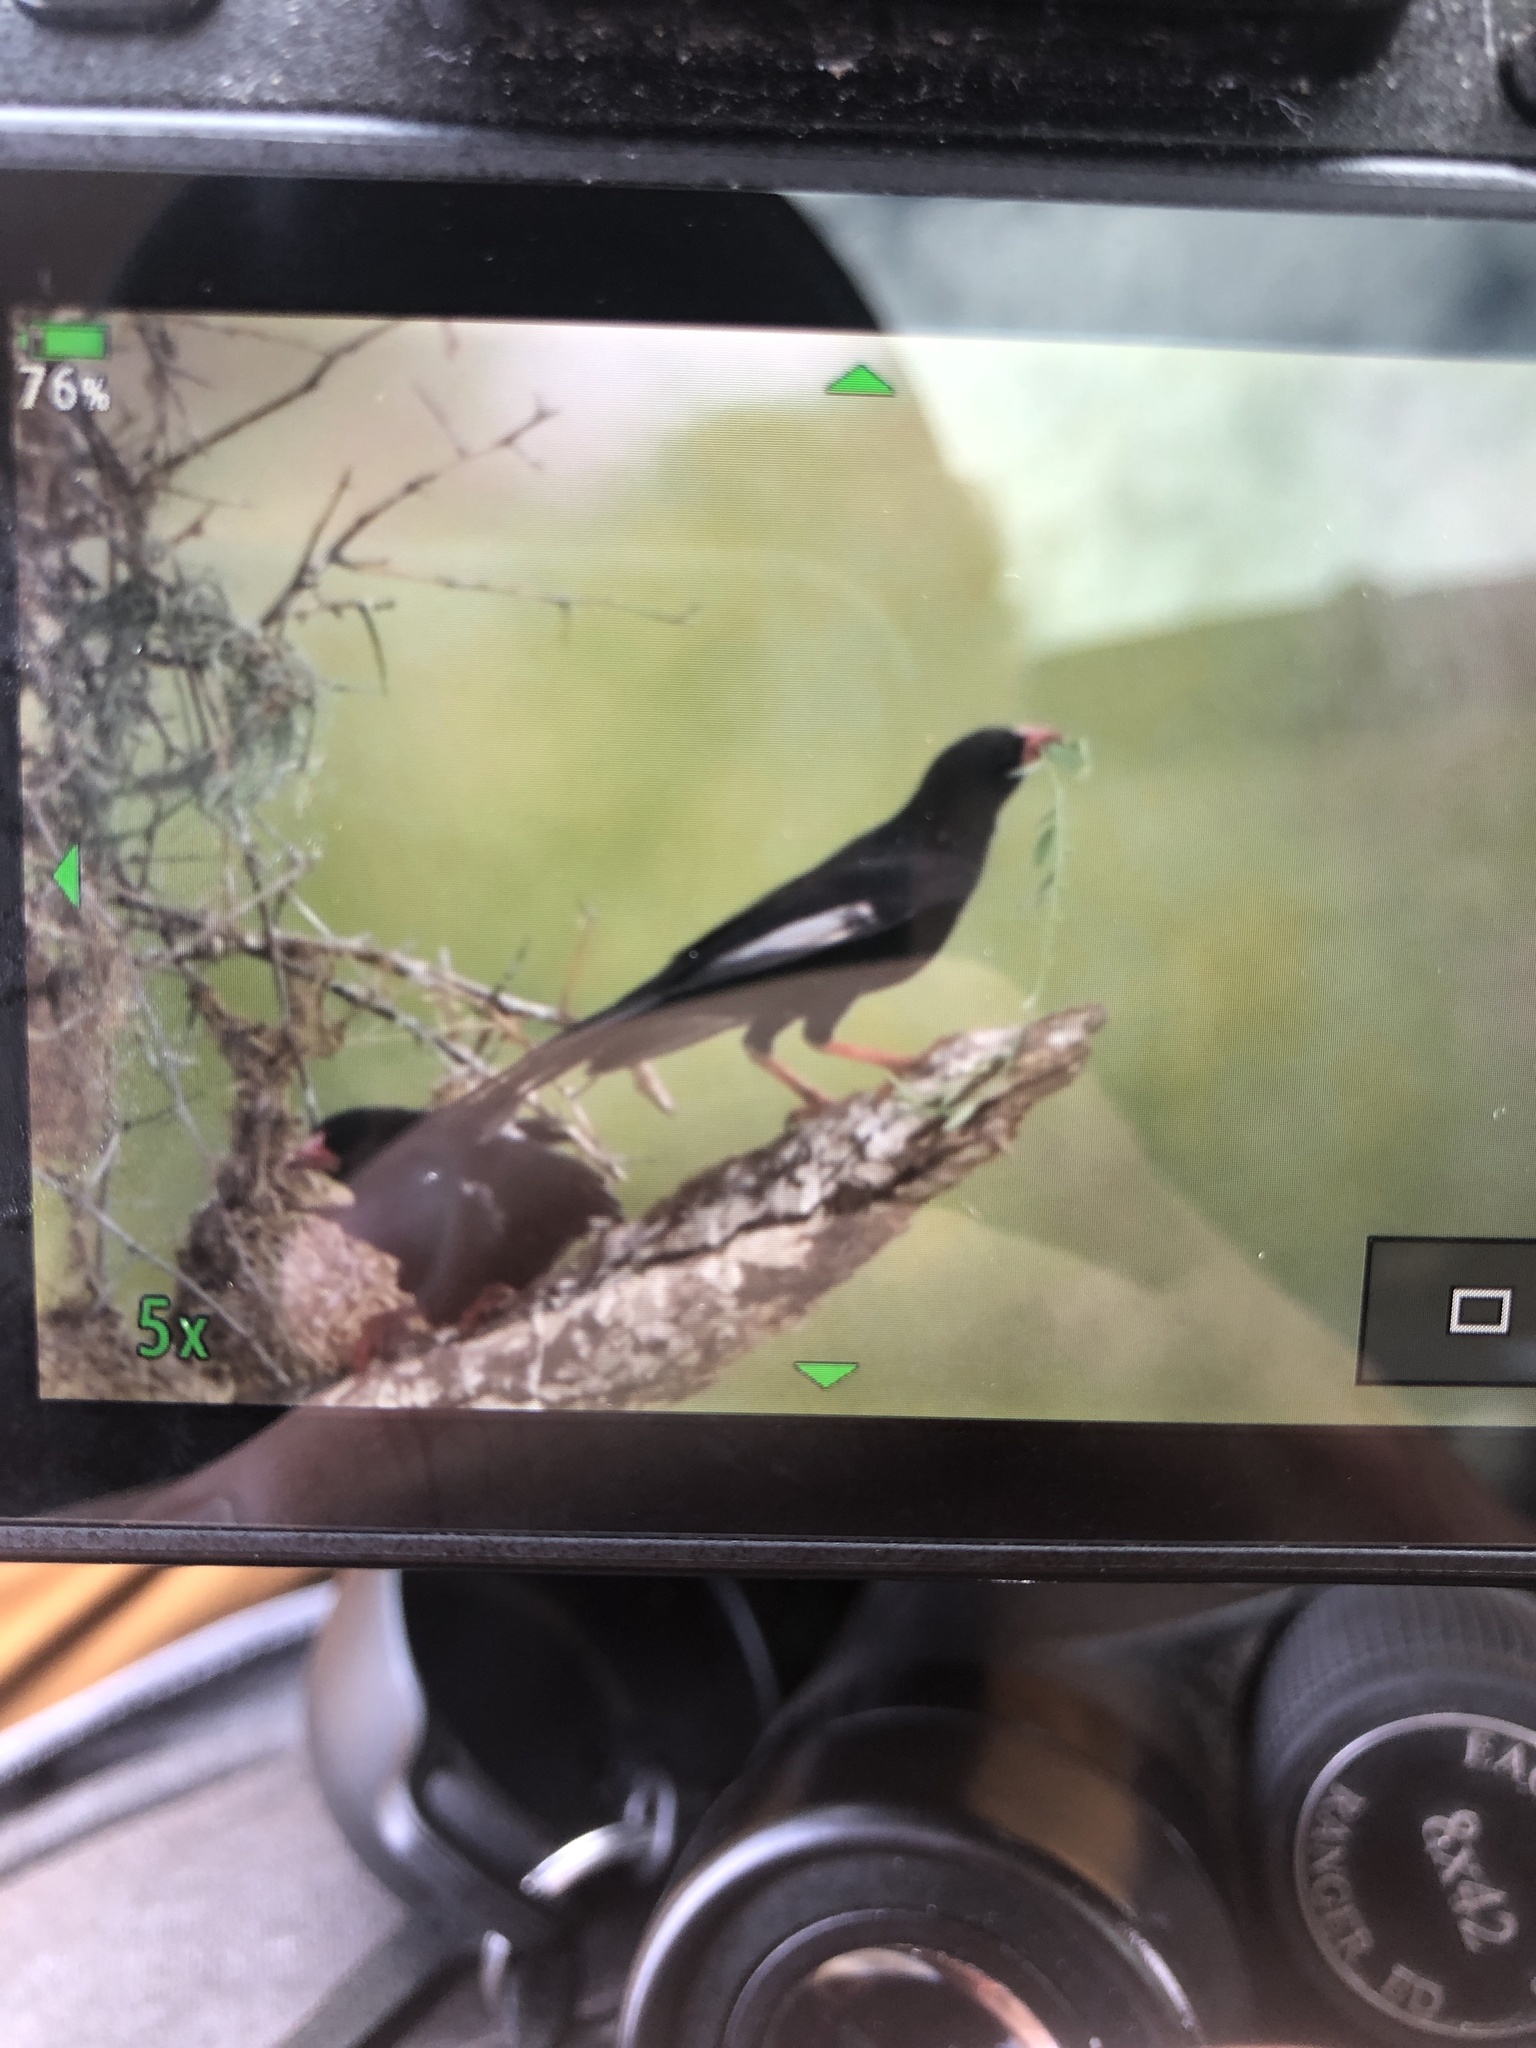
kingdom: Animalia
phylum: Chordata
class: Aves
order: Passeriformes
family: Ploceidae
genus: Bubalornis
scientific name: Bubalornis niger
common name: Red-billed buffalo weaver
